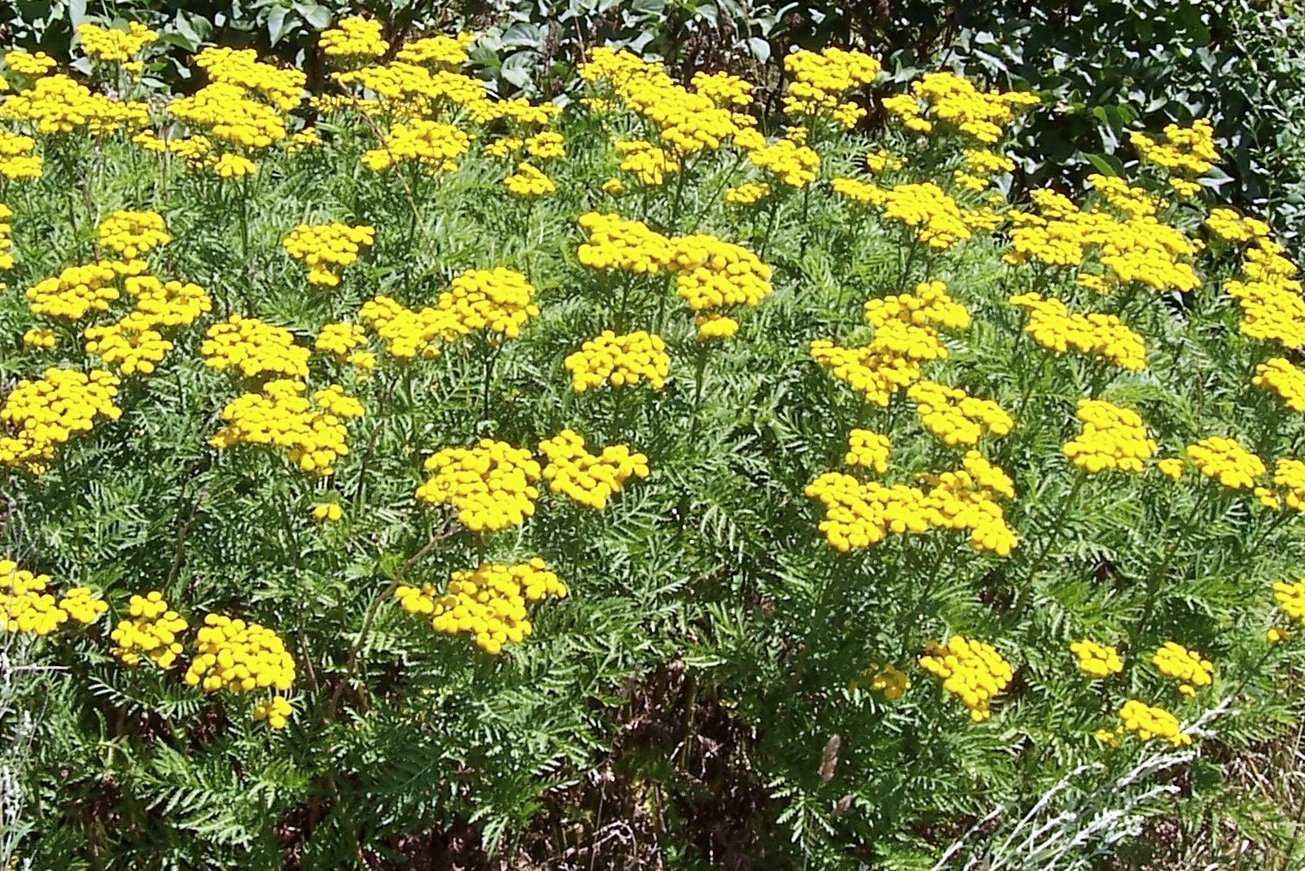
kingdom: Plantae
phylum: Tracheophyta
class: Magnoliopsida
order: Asterales
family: Asteraceae
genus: Tanacetum
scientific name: Tanacetum vulgare
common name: Common tansy
